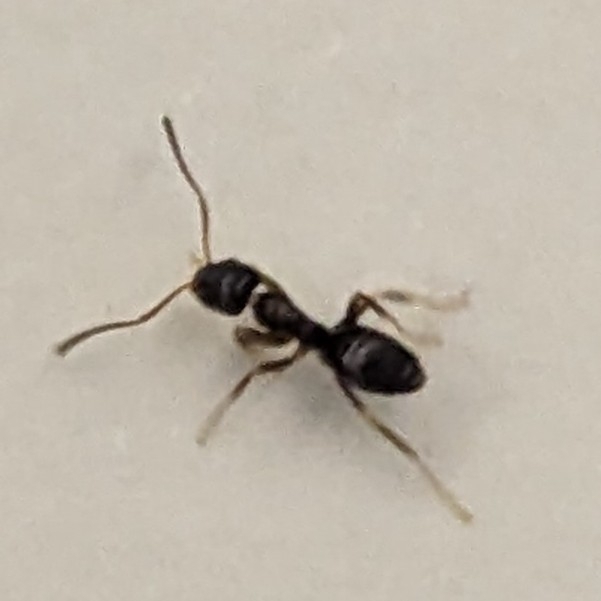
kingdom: Animalia
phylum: Arthropoda
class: Insecta
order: Hymenoptera
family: Formicidae
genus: Tapinoma
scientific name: Tapinoma sessile
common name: Odorous house ant
